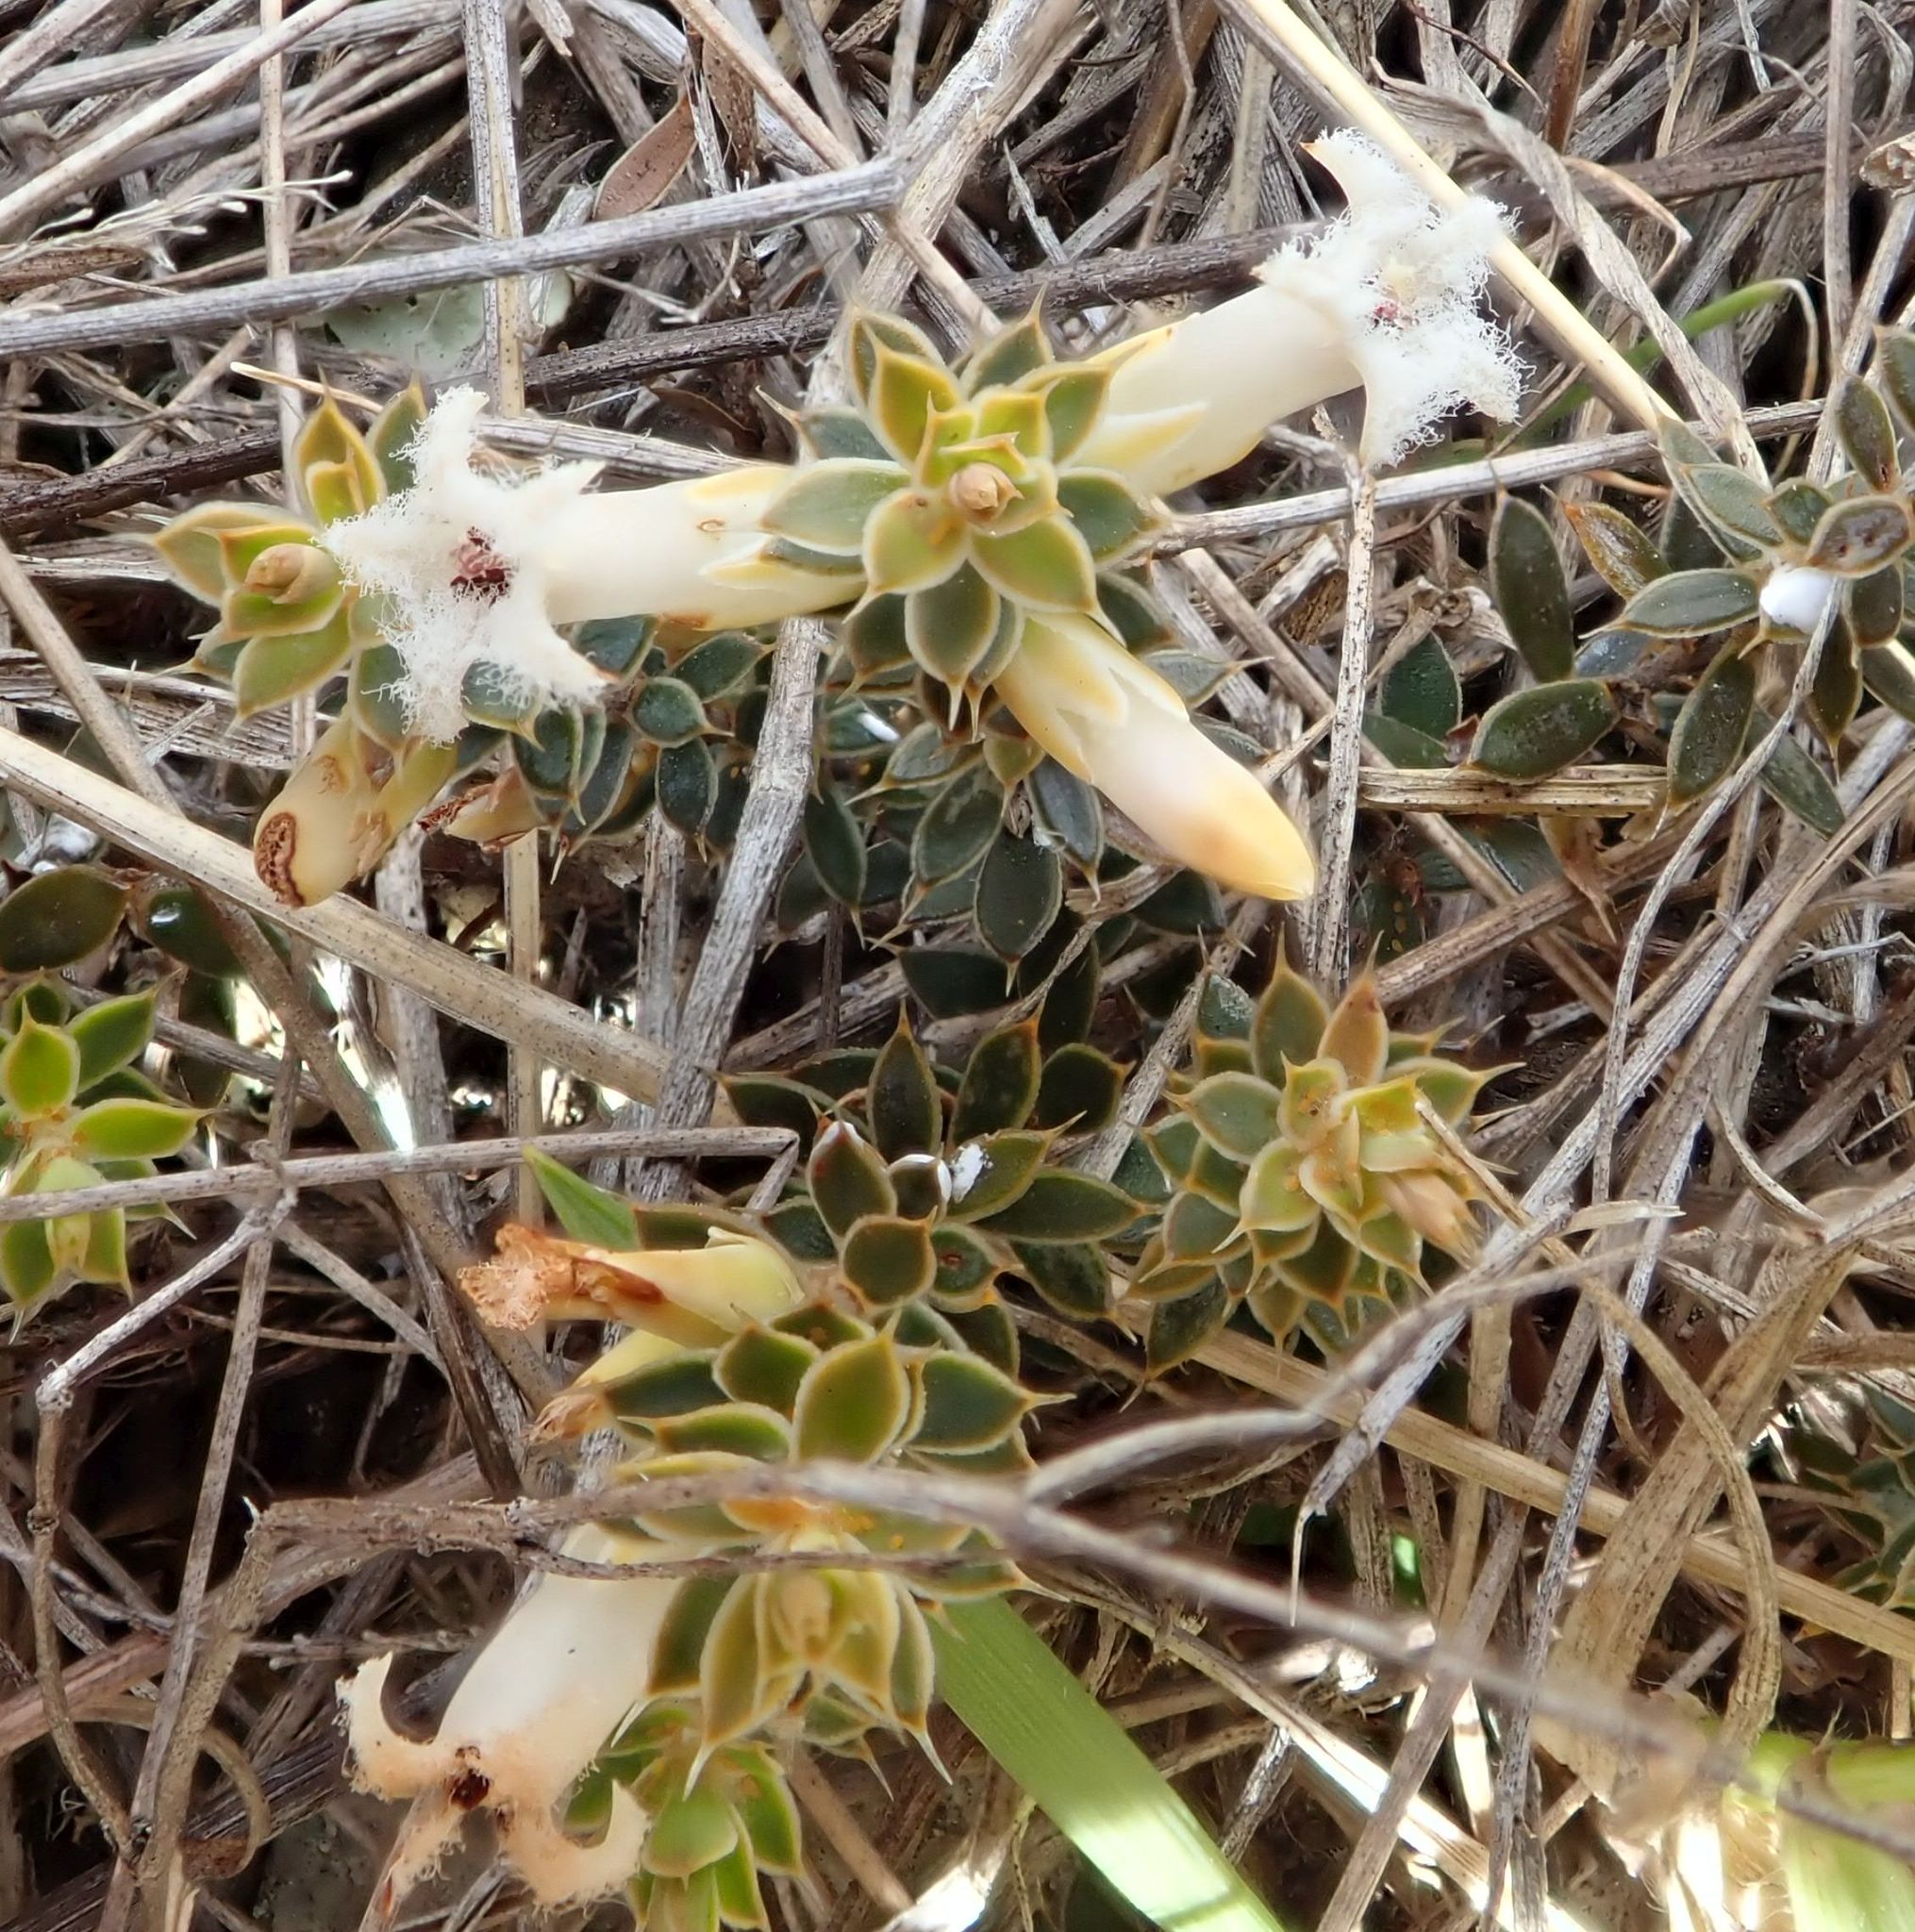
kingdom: Plantae
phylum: Tracheophyta
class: Magnoliopsida
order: Ericales
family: Ericaceae
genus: Styphelia
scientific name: Styphelia nesophila
